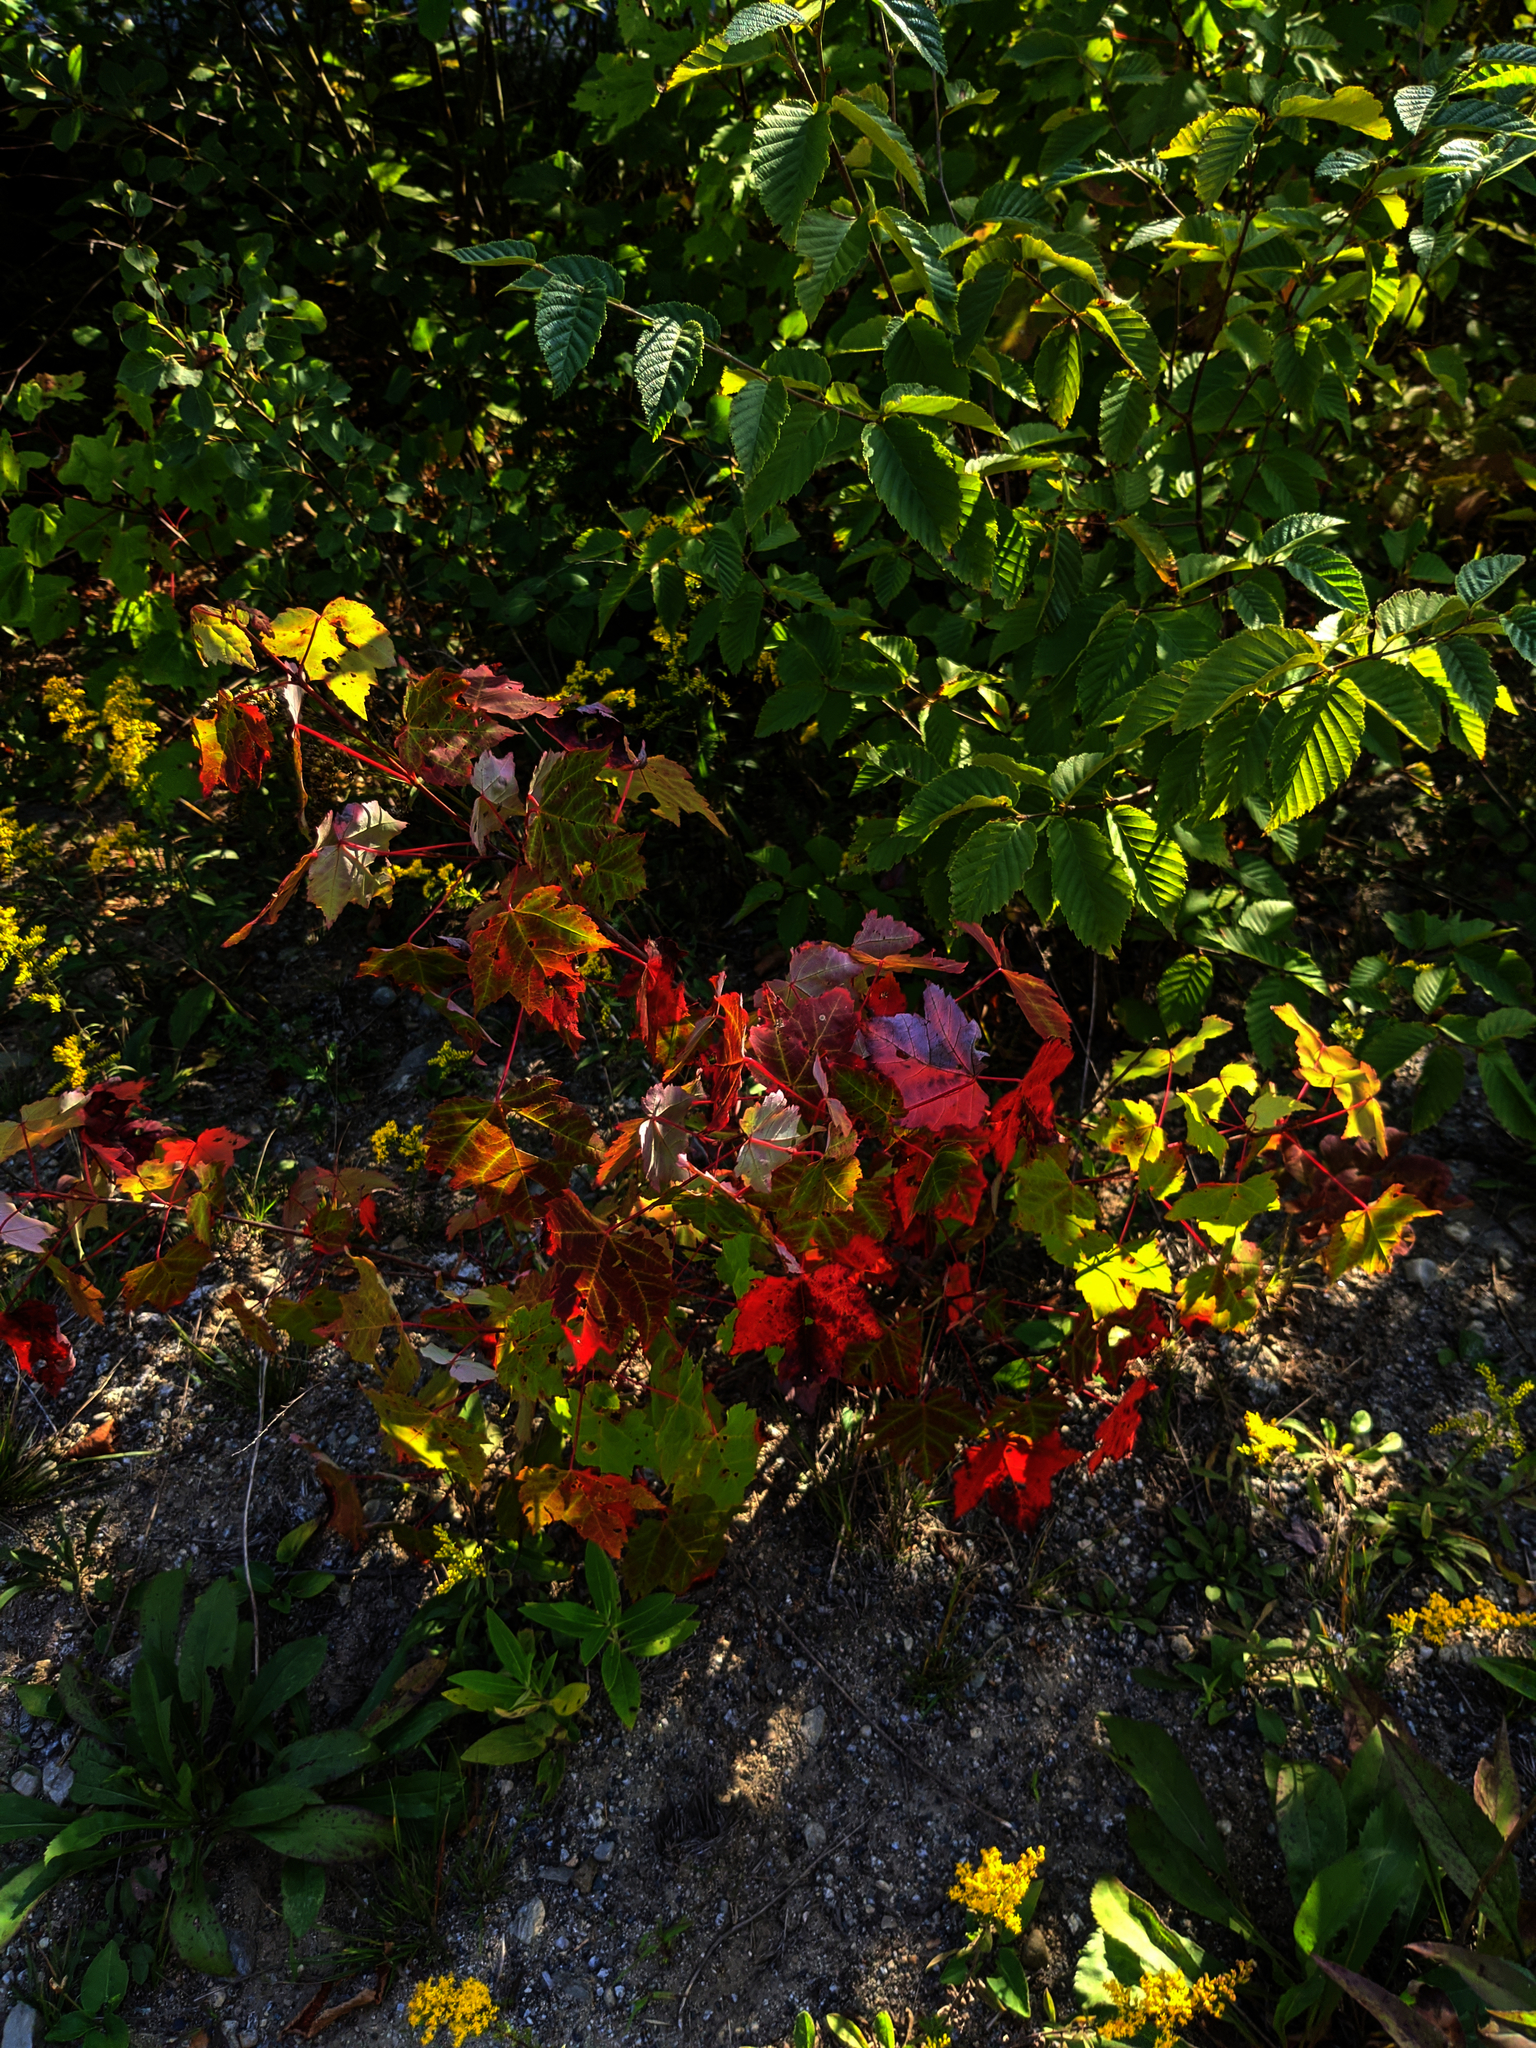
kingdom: Plantae
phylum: Tracheophyta
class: Magnoliopsida
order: Sapindales
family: Sapindaceae
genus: Acer
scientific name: Acer rubrum
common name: Red maple
